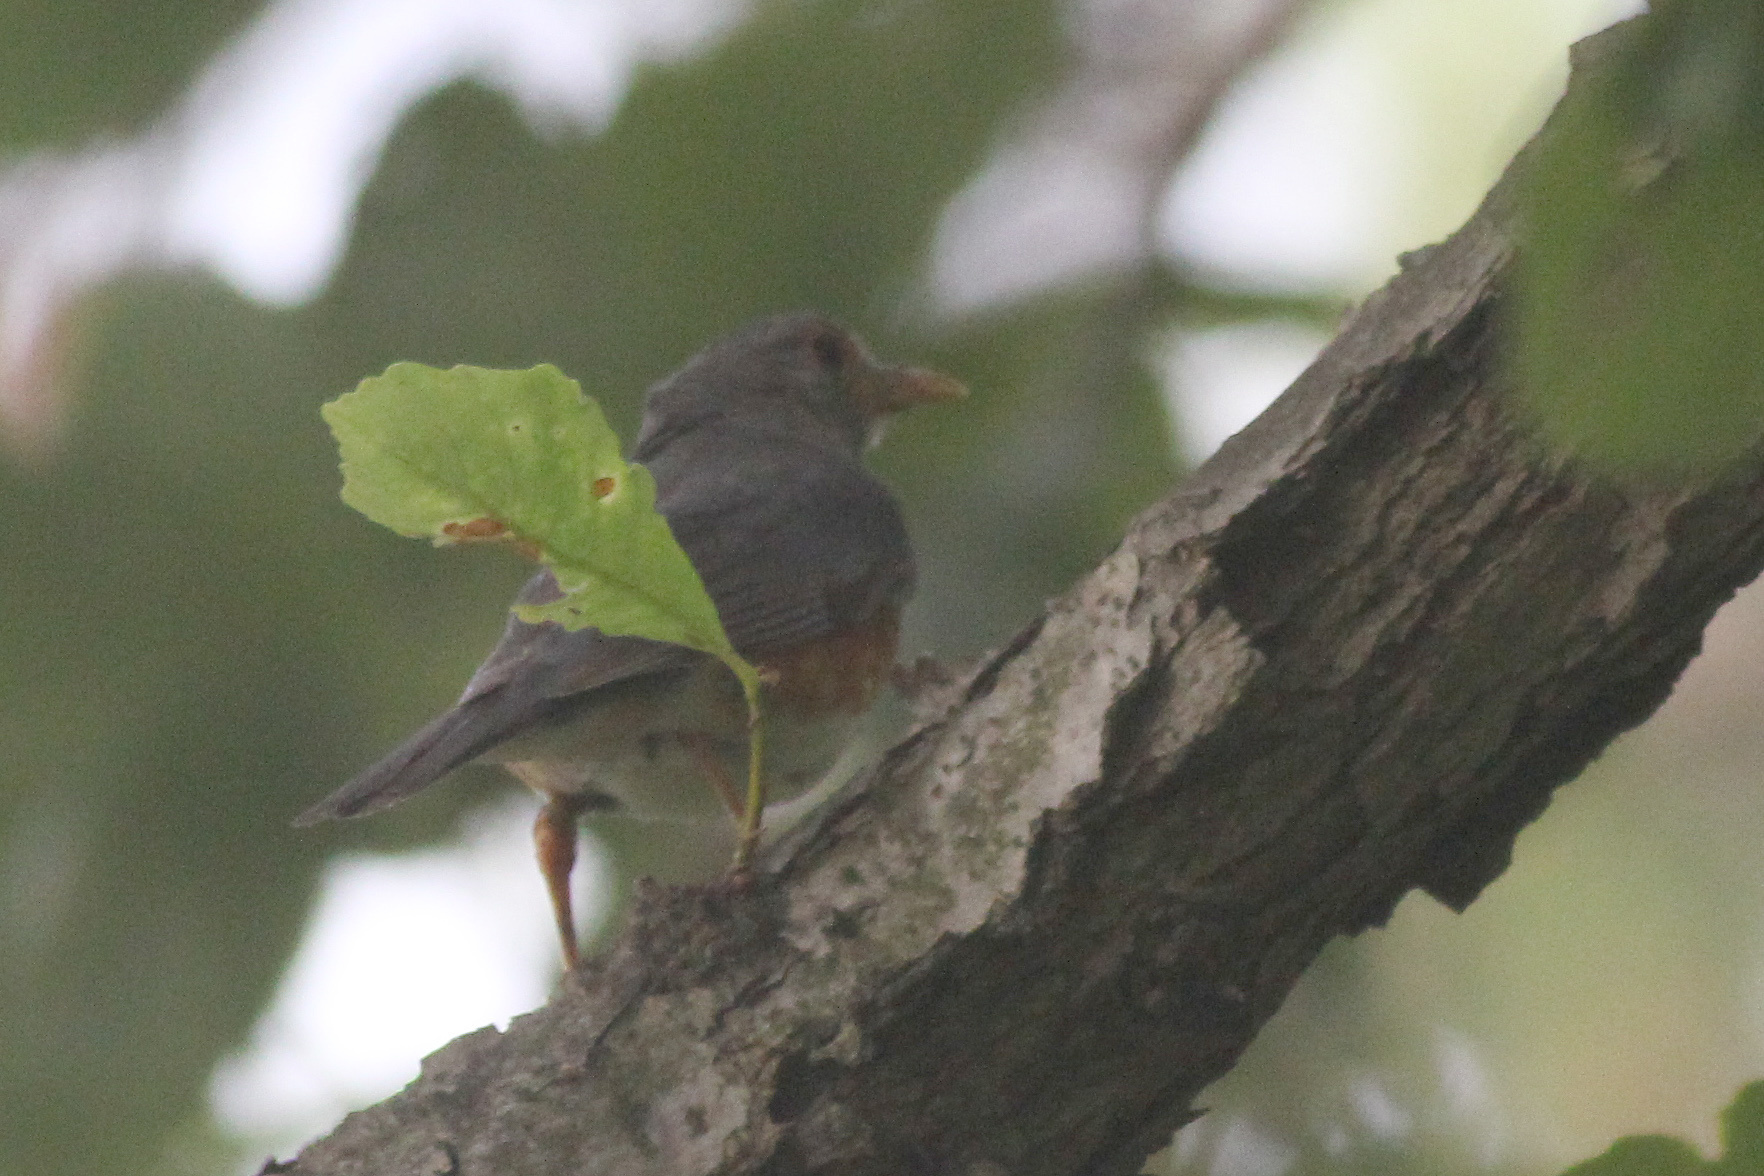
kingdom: Animalia
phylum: Chordata
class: Aves
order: Passeriformes
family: Turdidae
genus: Turdus
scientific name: Turdus hortulorum
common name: Grey-backed thrush
